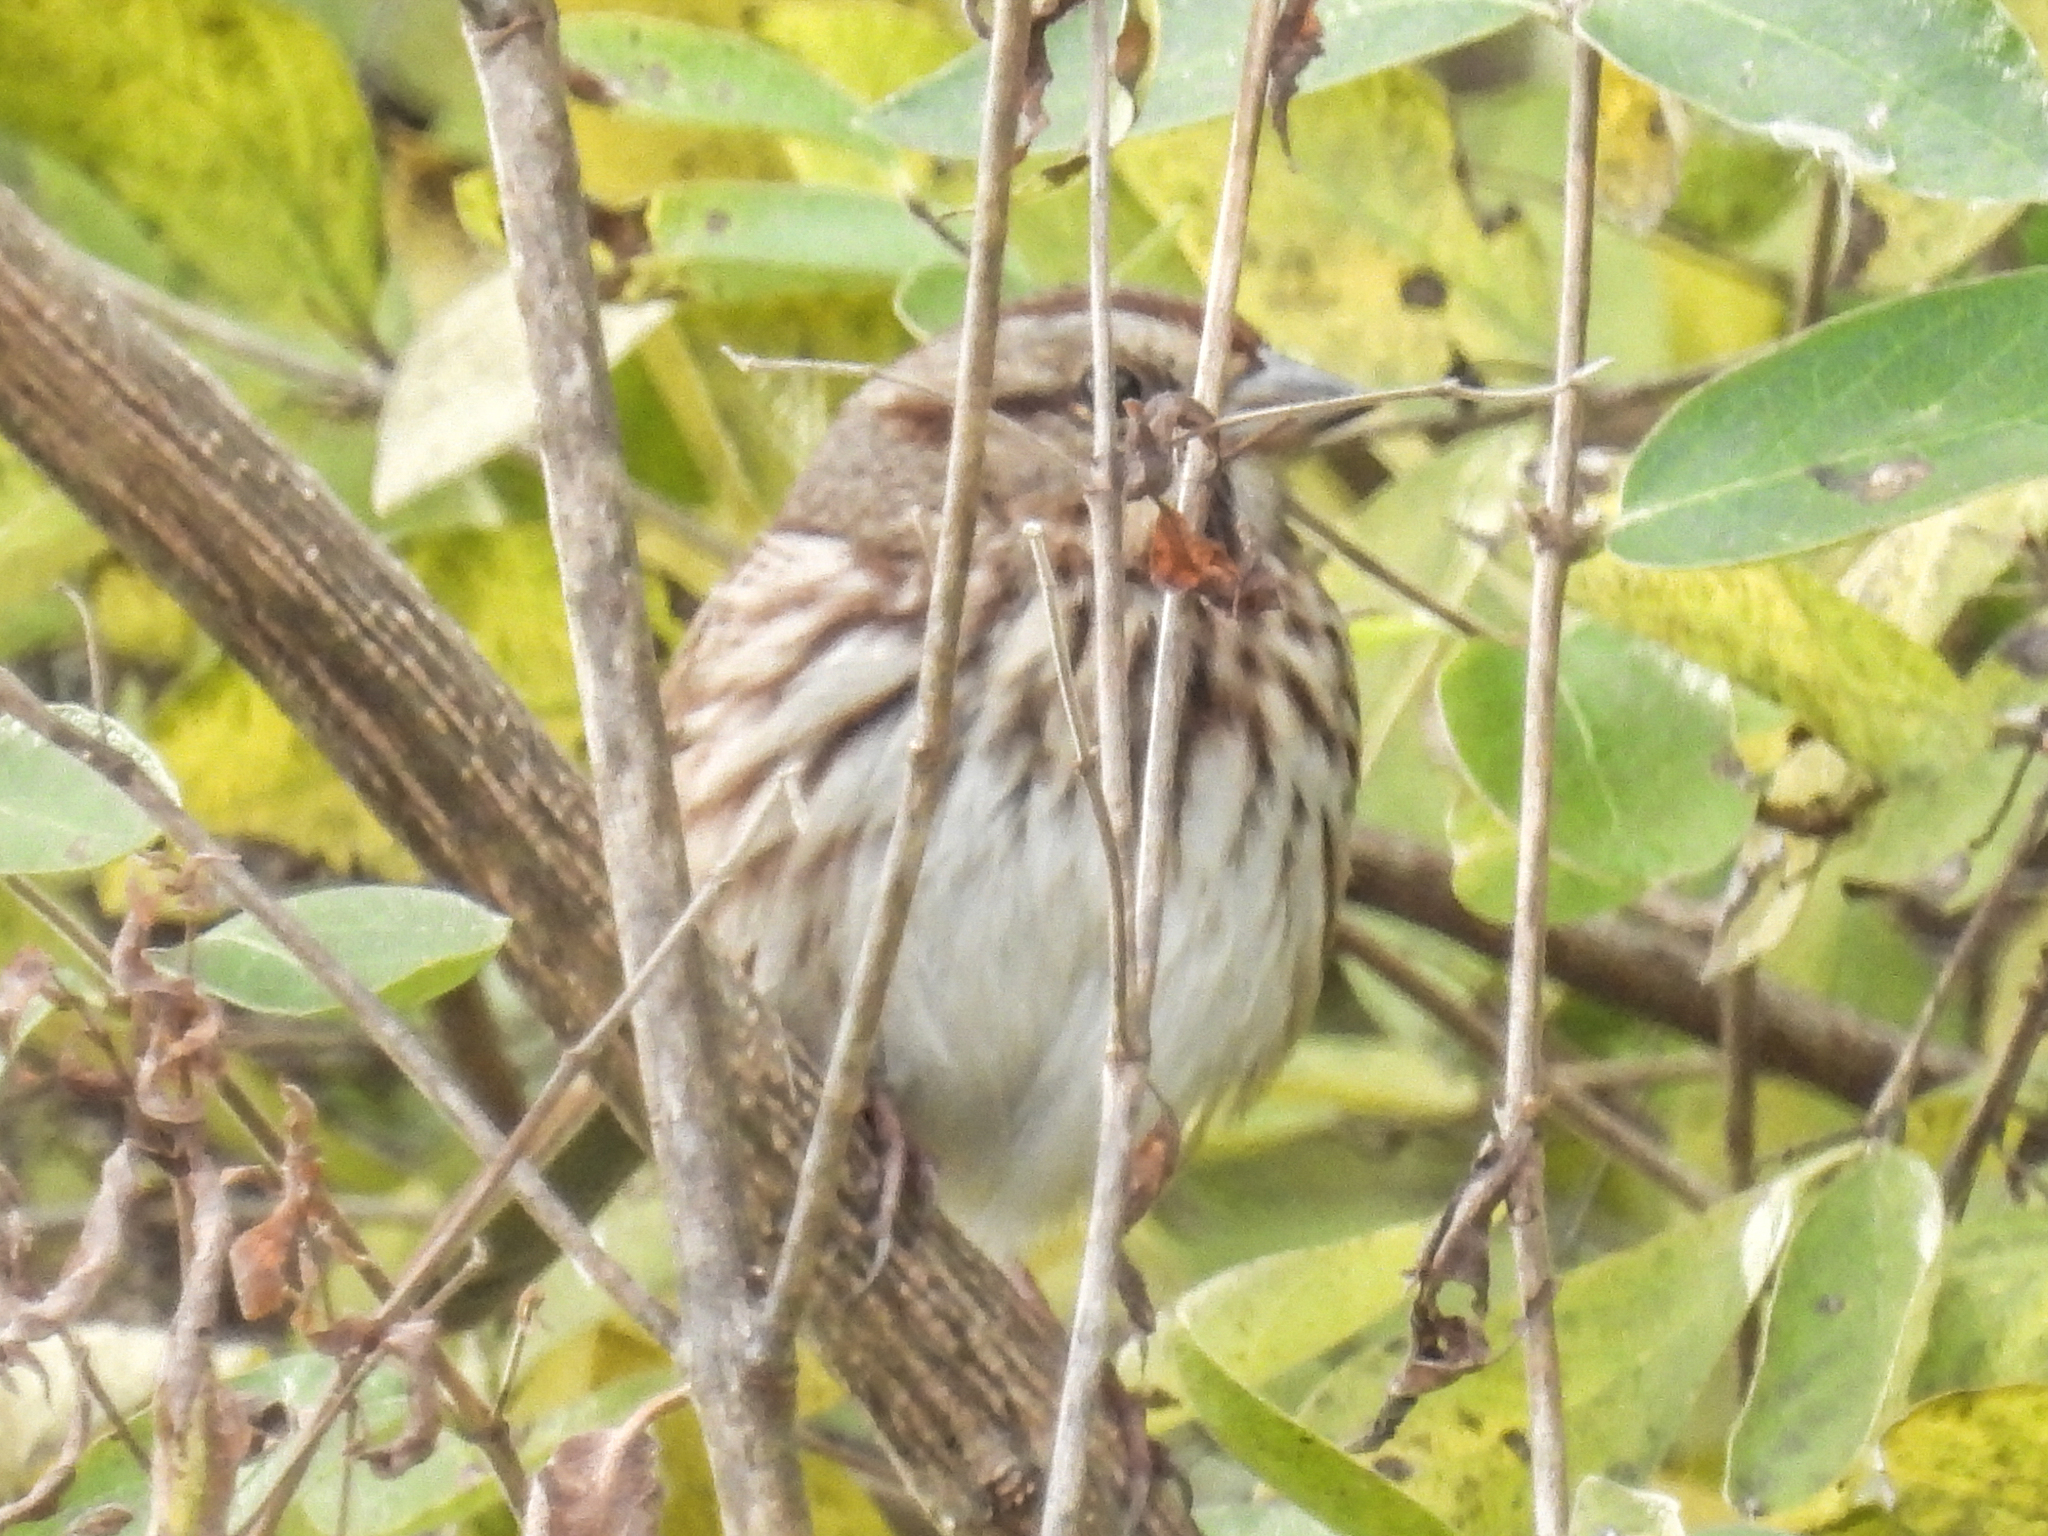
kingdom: Animalia
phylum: Chordata
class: Aves
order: Passeriformes
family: Passerellidae
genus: Melospiza
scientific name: Melospiza melodia
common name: Song sparrow
